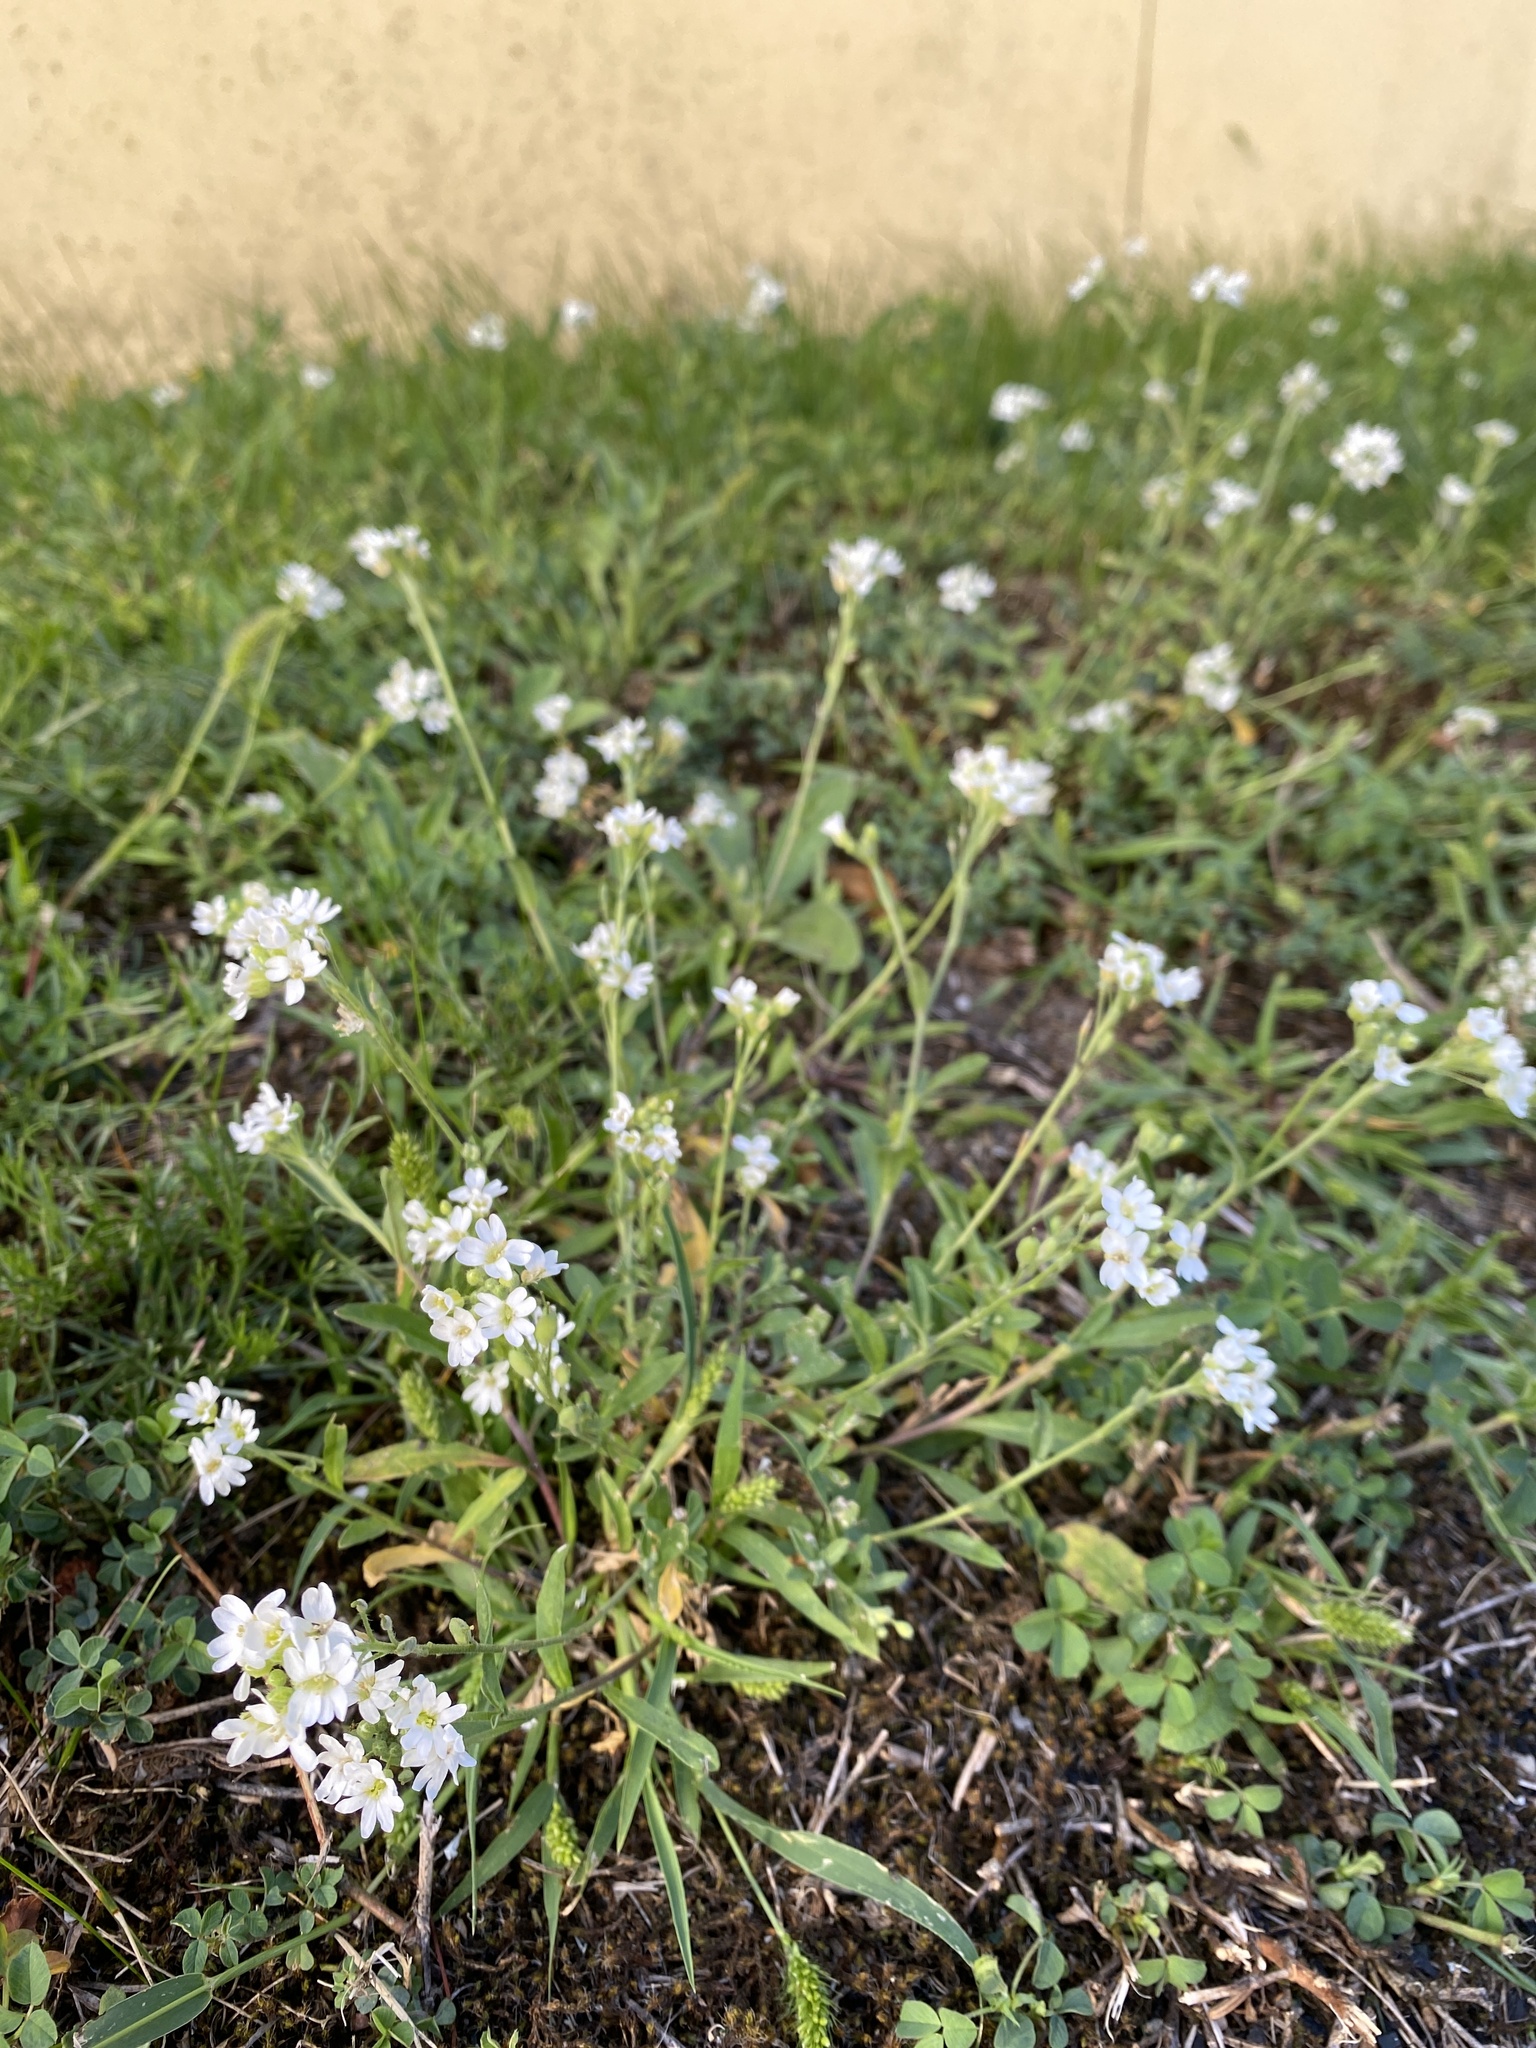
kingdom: Plantae
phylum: Tracheophyta
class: Magnoliopsida
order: Brassicales
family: Brassicaceae
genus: Berteroa
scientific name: Berteroa incana
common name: Hoary alison
